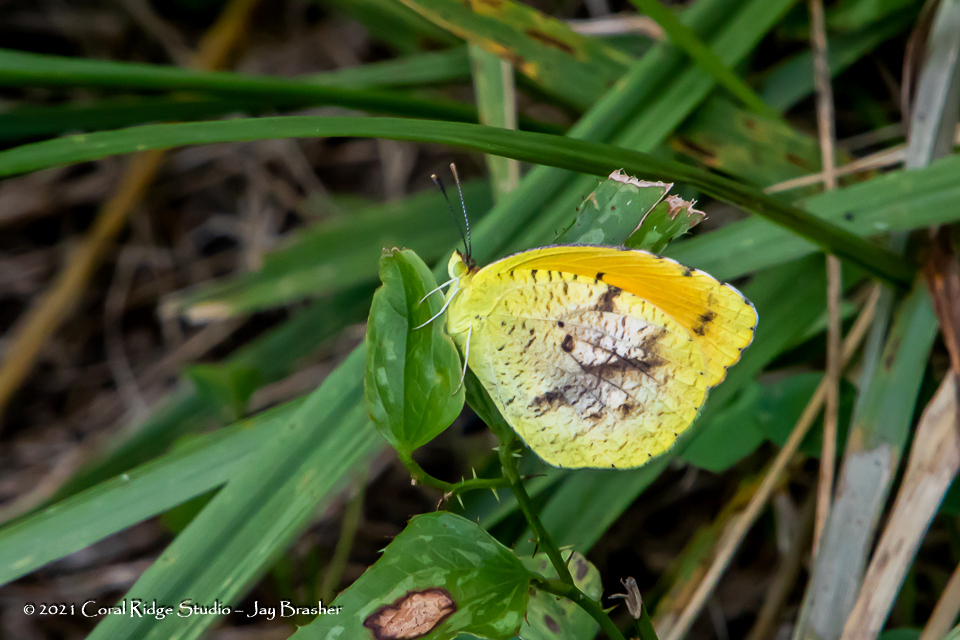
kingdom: Animalia
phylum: Arthropoda
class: Insecta
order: Lepidoptera
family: Pieridae
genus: Abaeis
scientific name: Abaeis nicippe
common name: Sleepy orange
